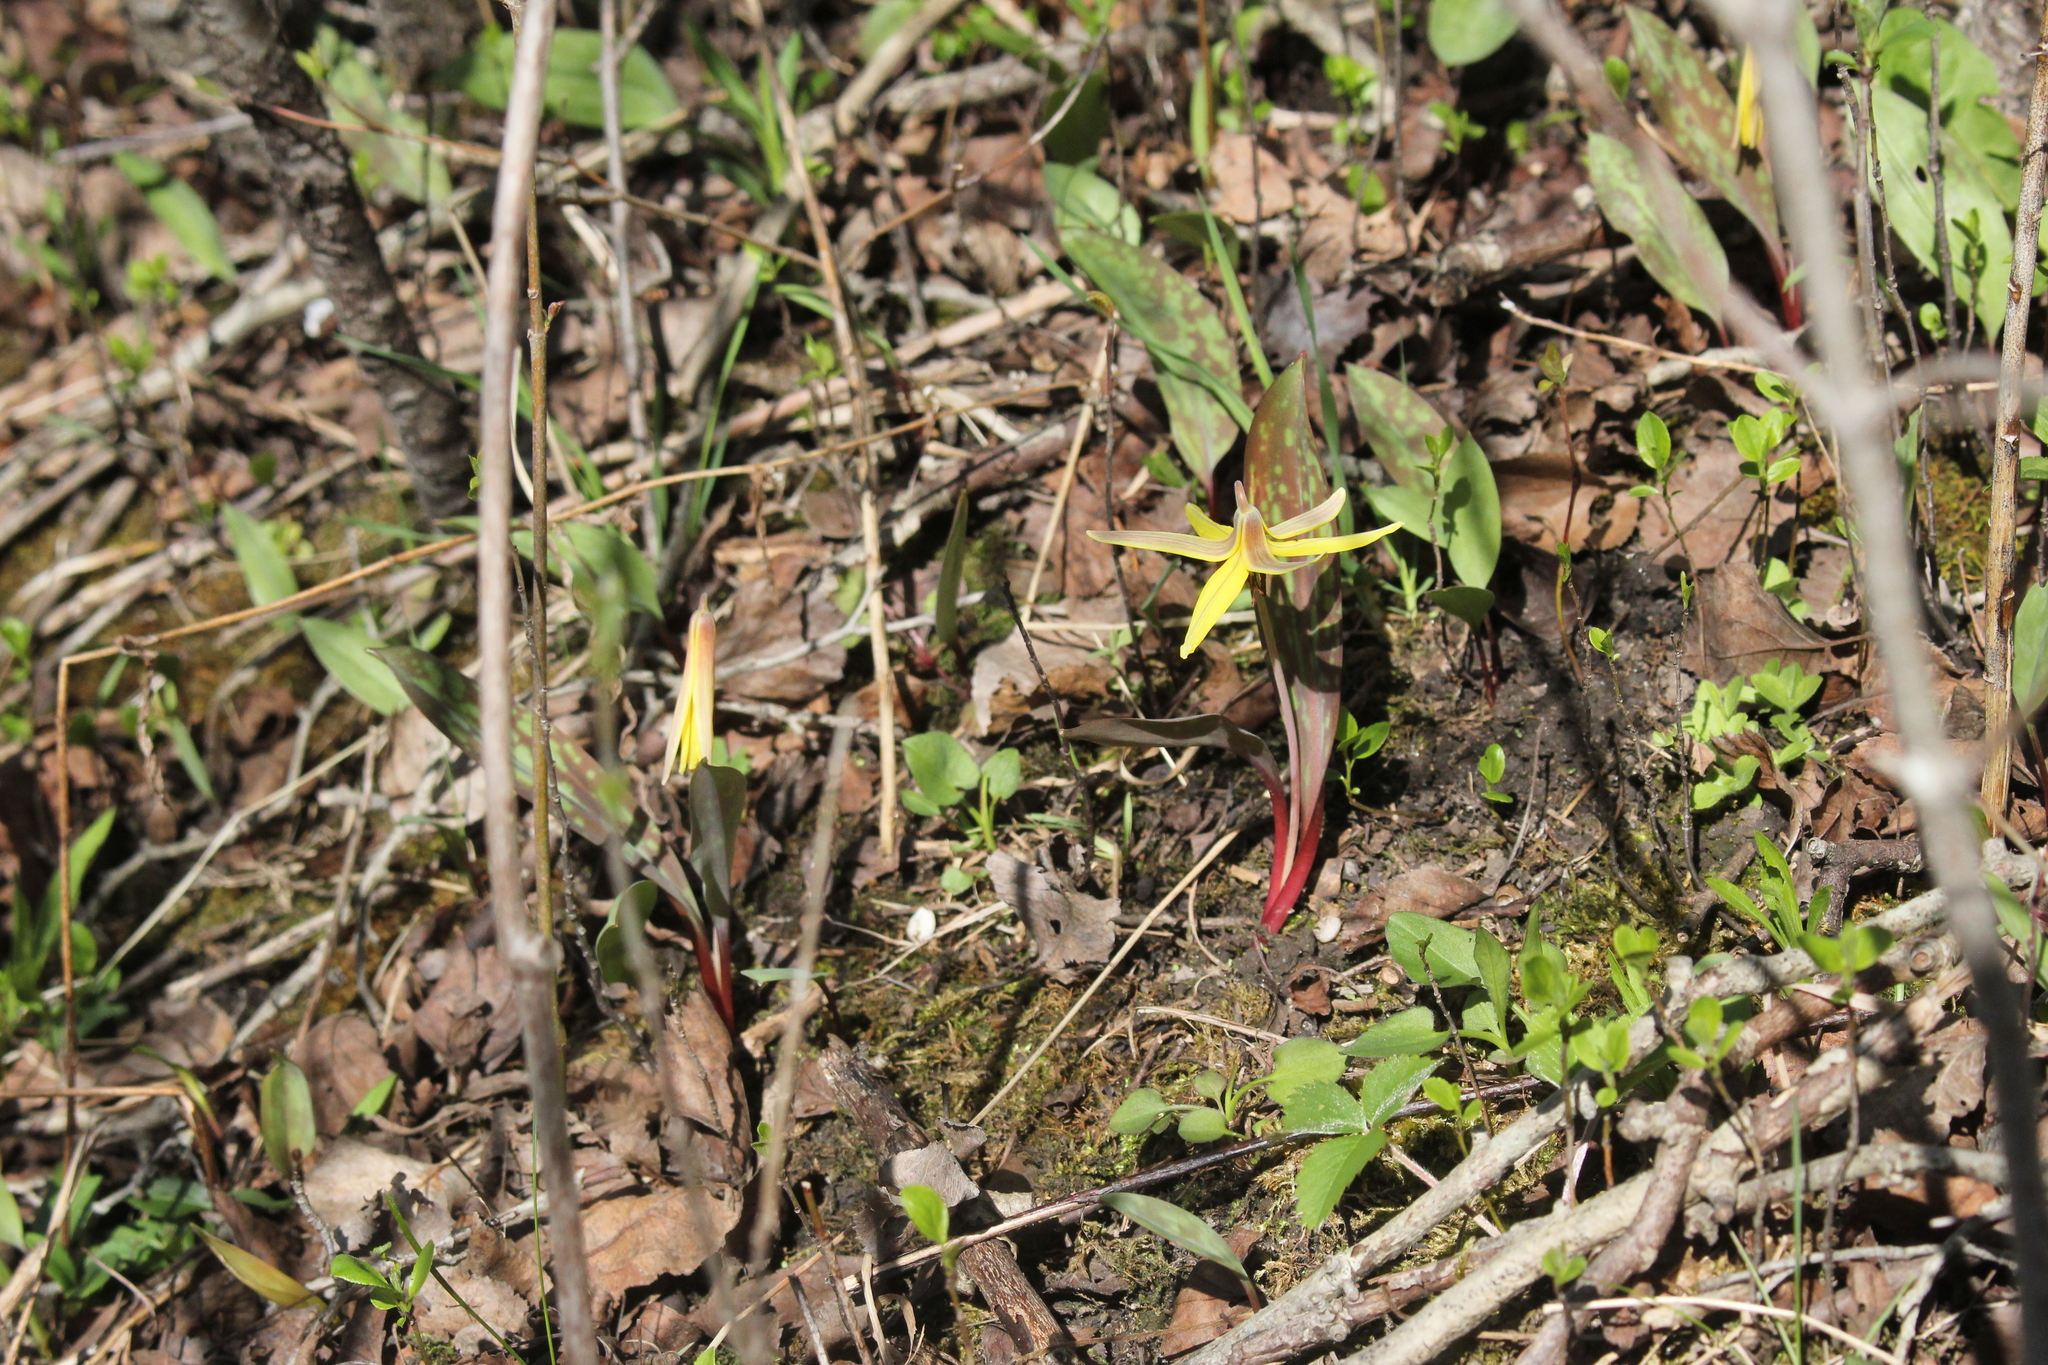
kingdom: Plantae
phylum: Tracheophyta
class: Liliopsida
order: Liliales
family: Liliaceae
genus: Erythronium
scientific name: Erythronium americanum
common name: Yellow adder's-tongue
